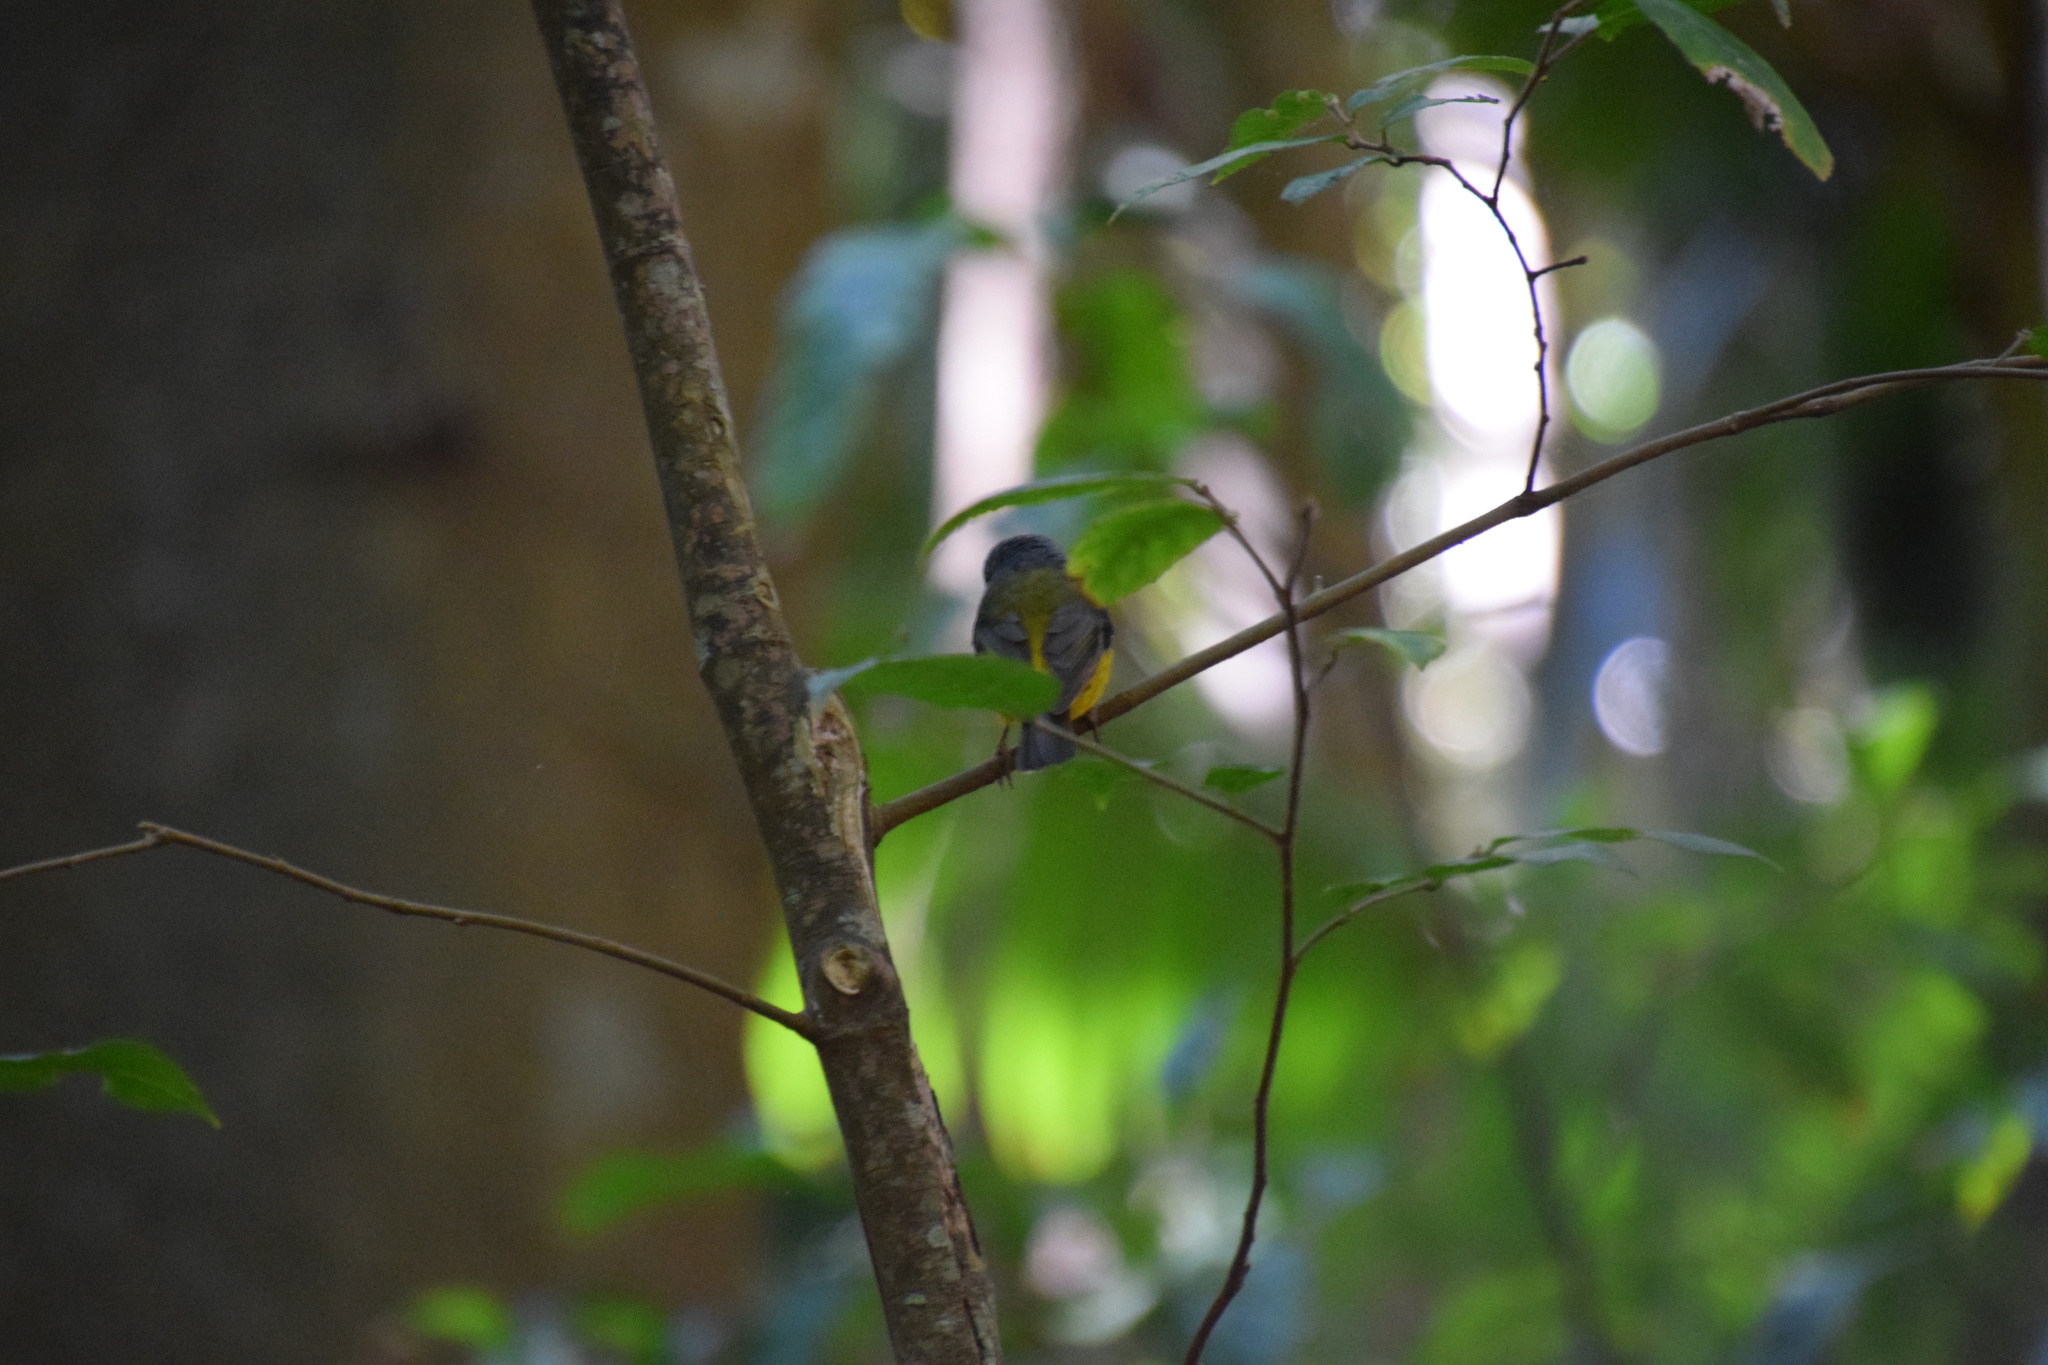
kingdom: Animalia
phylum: Chordata
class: Aves
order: Passeriformes
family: Petroicidae
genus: Eopsaltria
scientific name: Eopsaltria australis
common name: Eastern yellow robin
